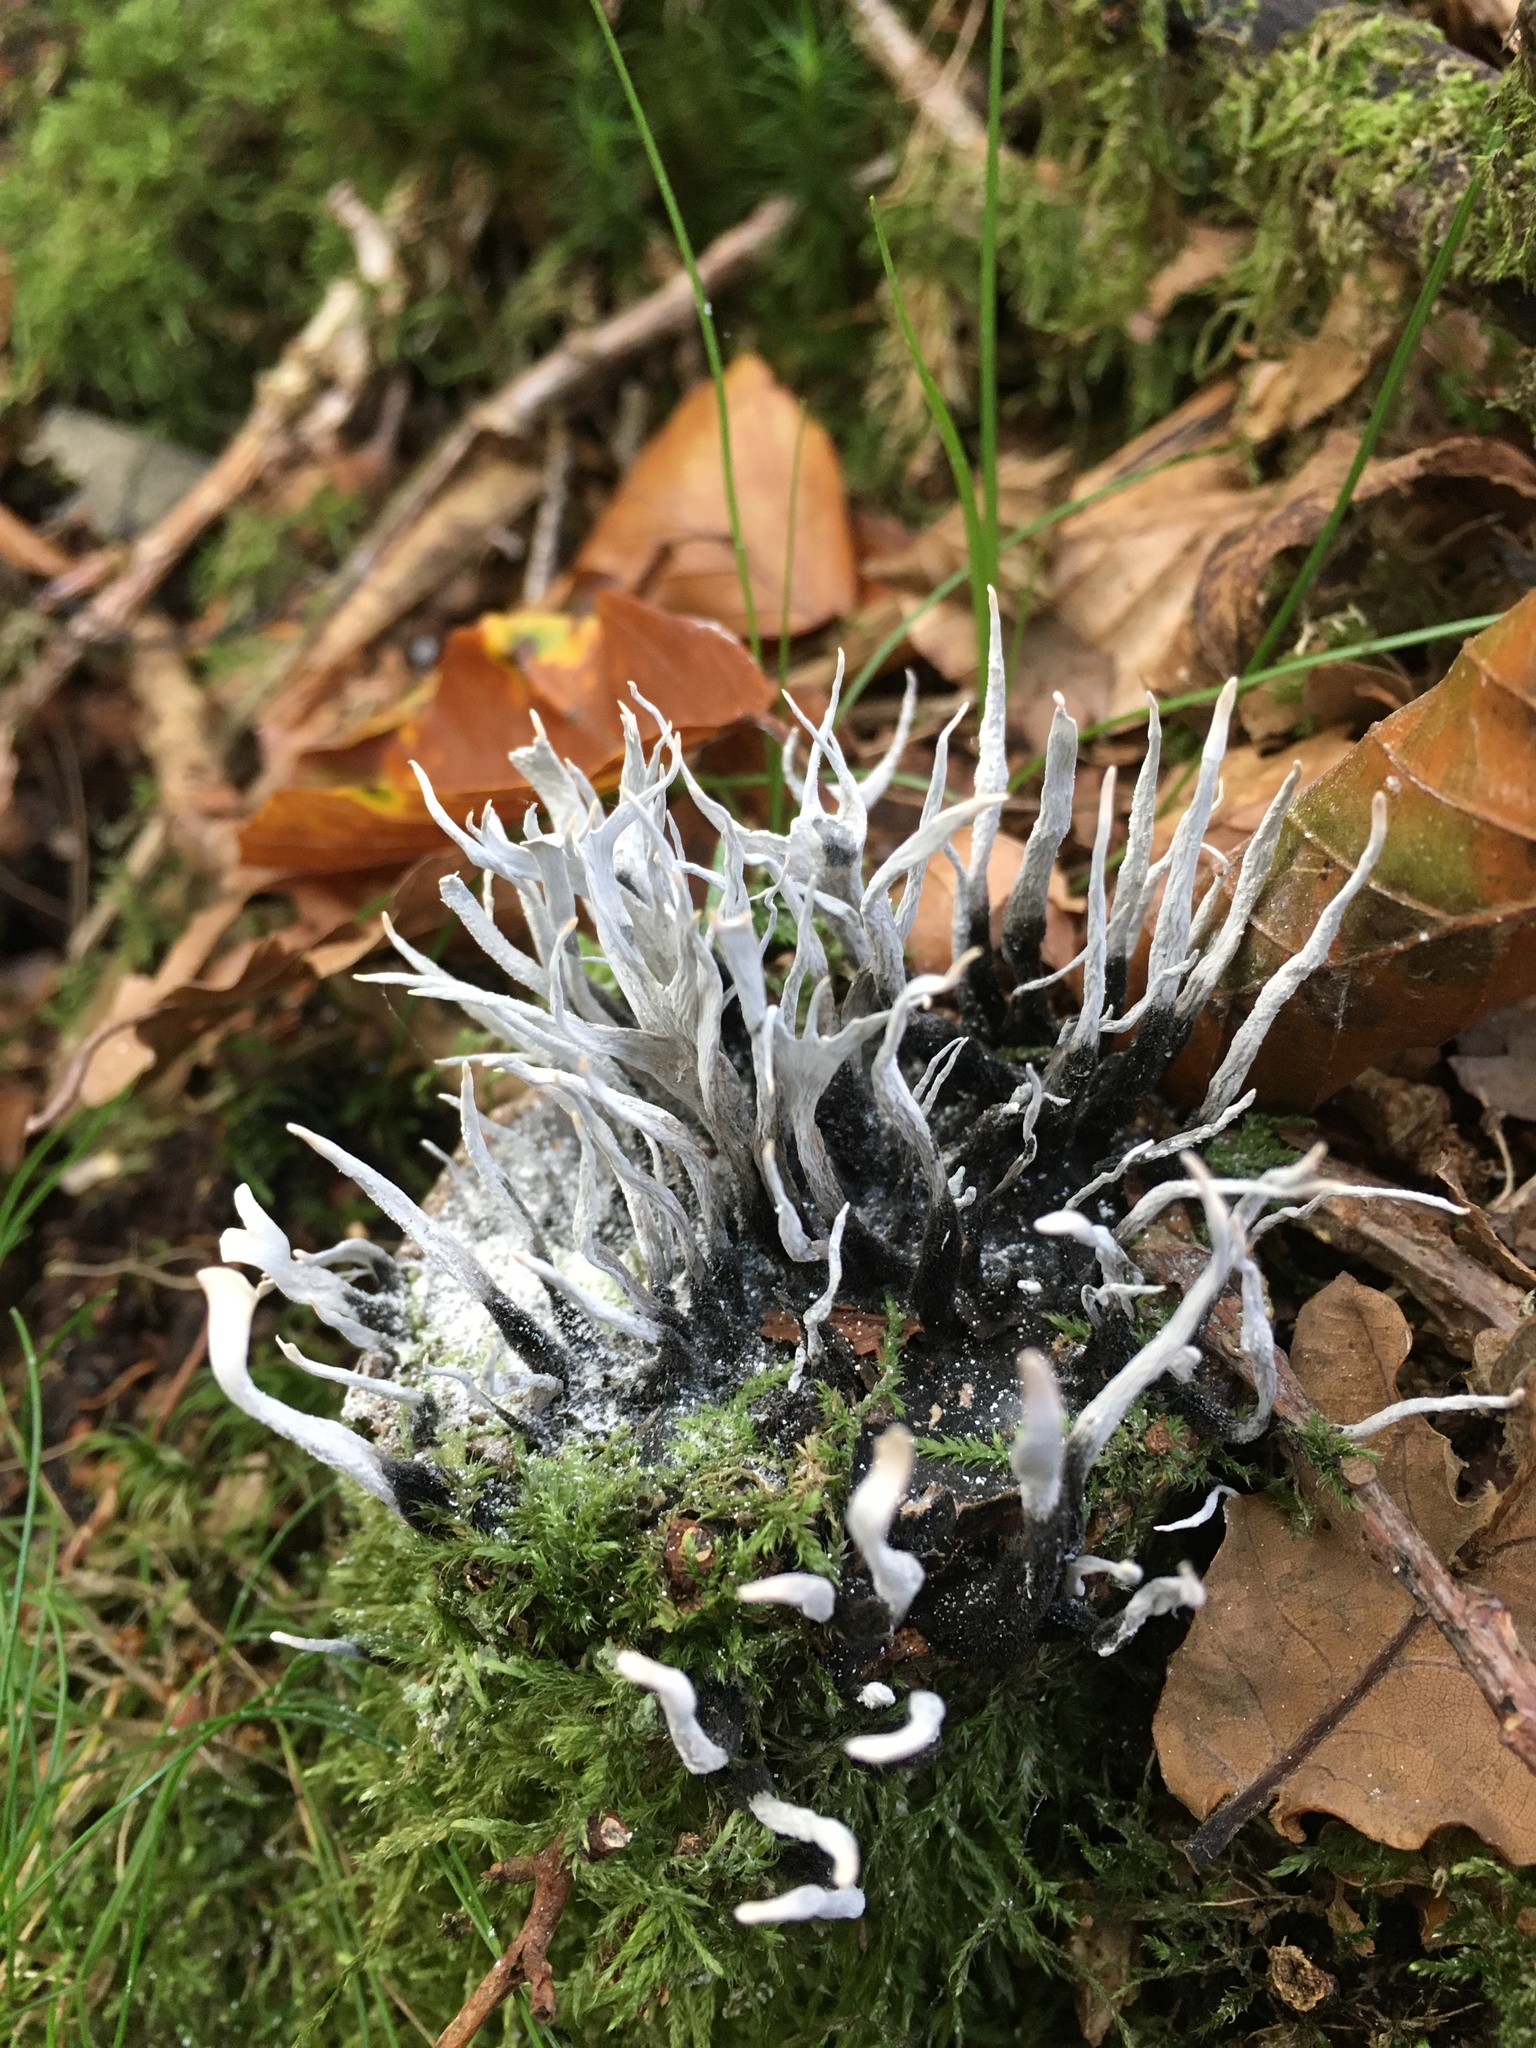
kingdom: Fungi
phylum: Ascomycota
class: Sordariomycetes
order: Xylariales
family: Xylariaceae
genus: Xylaria
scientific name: Xylaria hypoxylon
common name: Candle-snuff fungus
